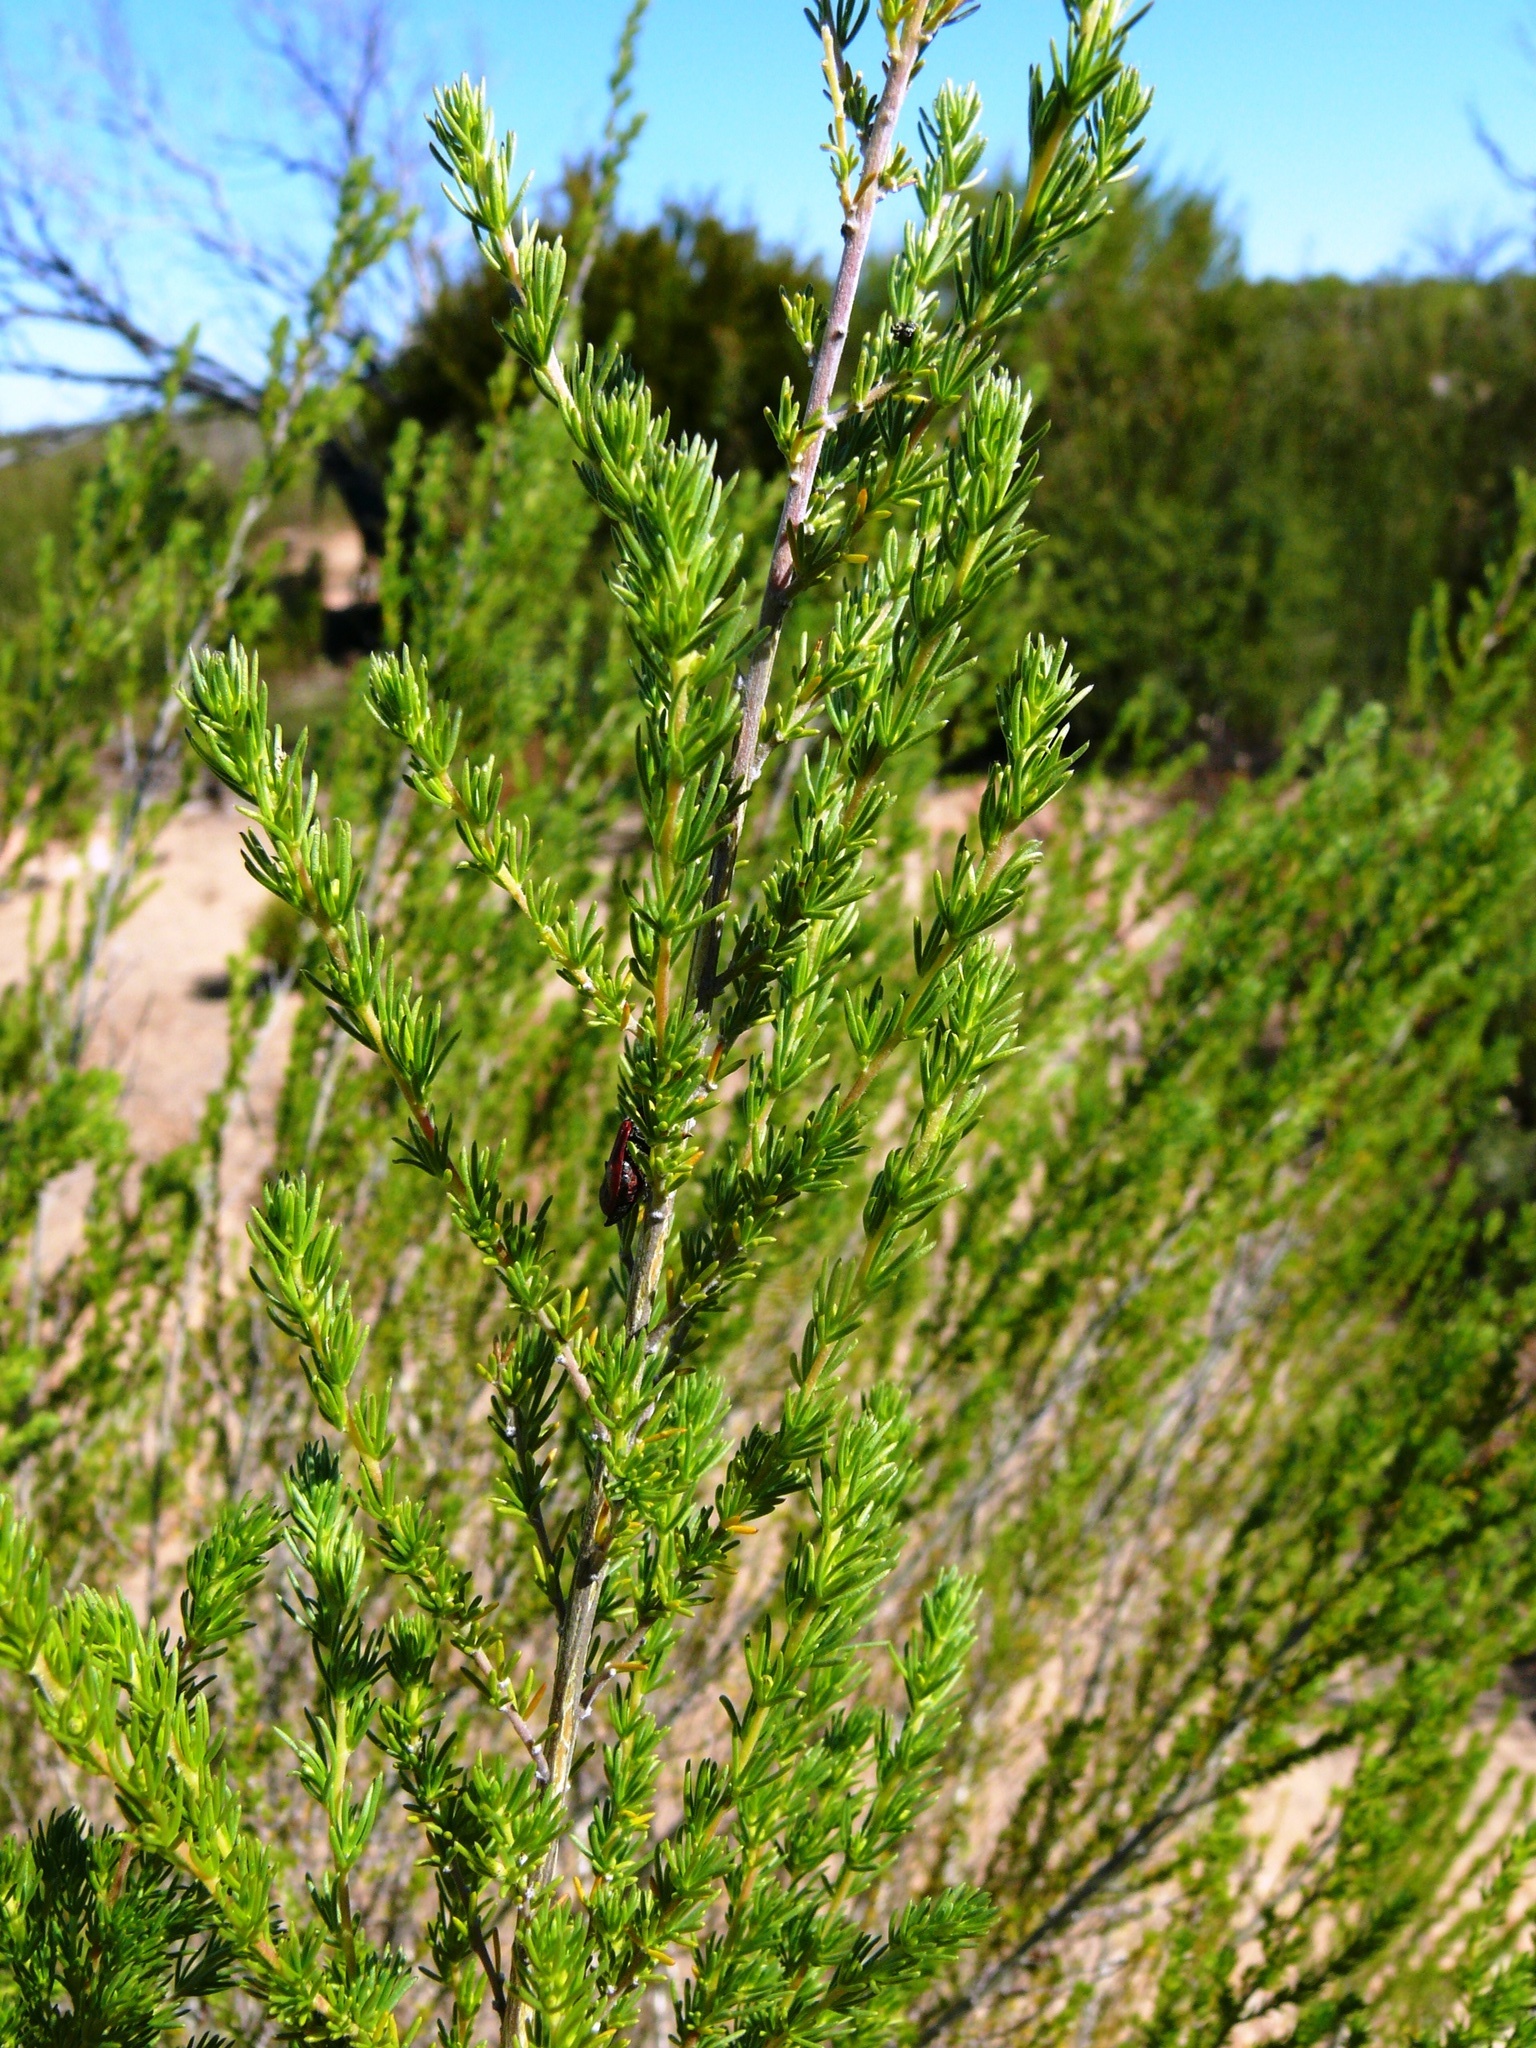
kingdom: Plantae
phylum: Tracheophyta
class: Magnoliopsida
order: Fabales
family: Fabaceae
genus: Aspalathus
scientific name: Aspalathus obliqua
